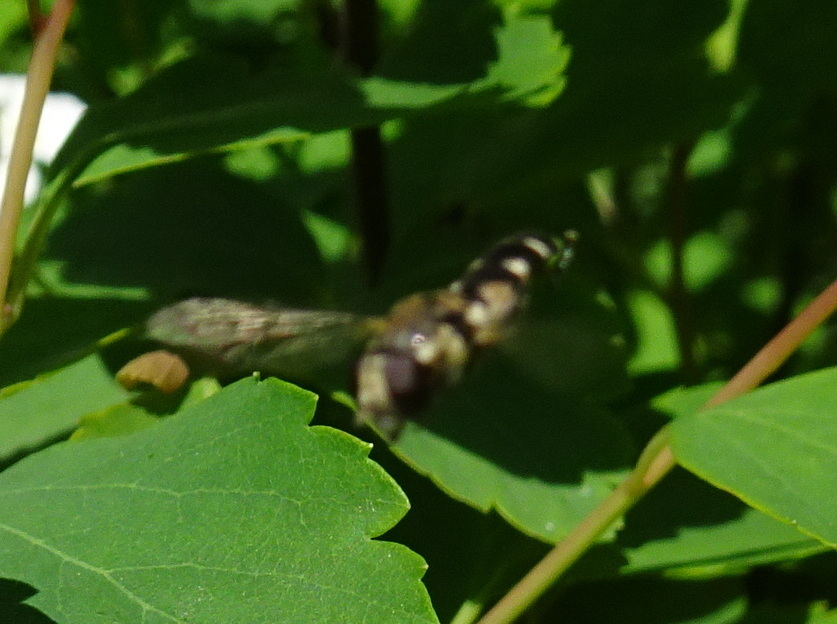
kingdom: Animalia
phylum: Arthropoda
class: Insecta
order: Diptera
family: Syrphidae
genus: Syritta
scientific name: Syritta pipiens
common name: Hover fly
